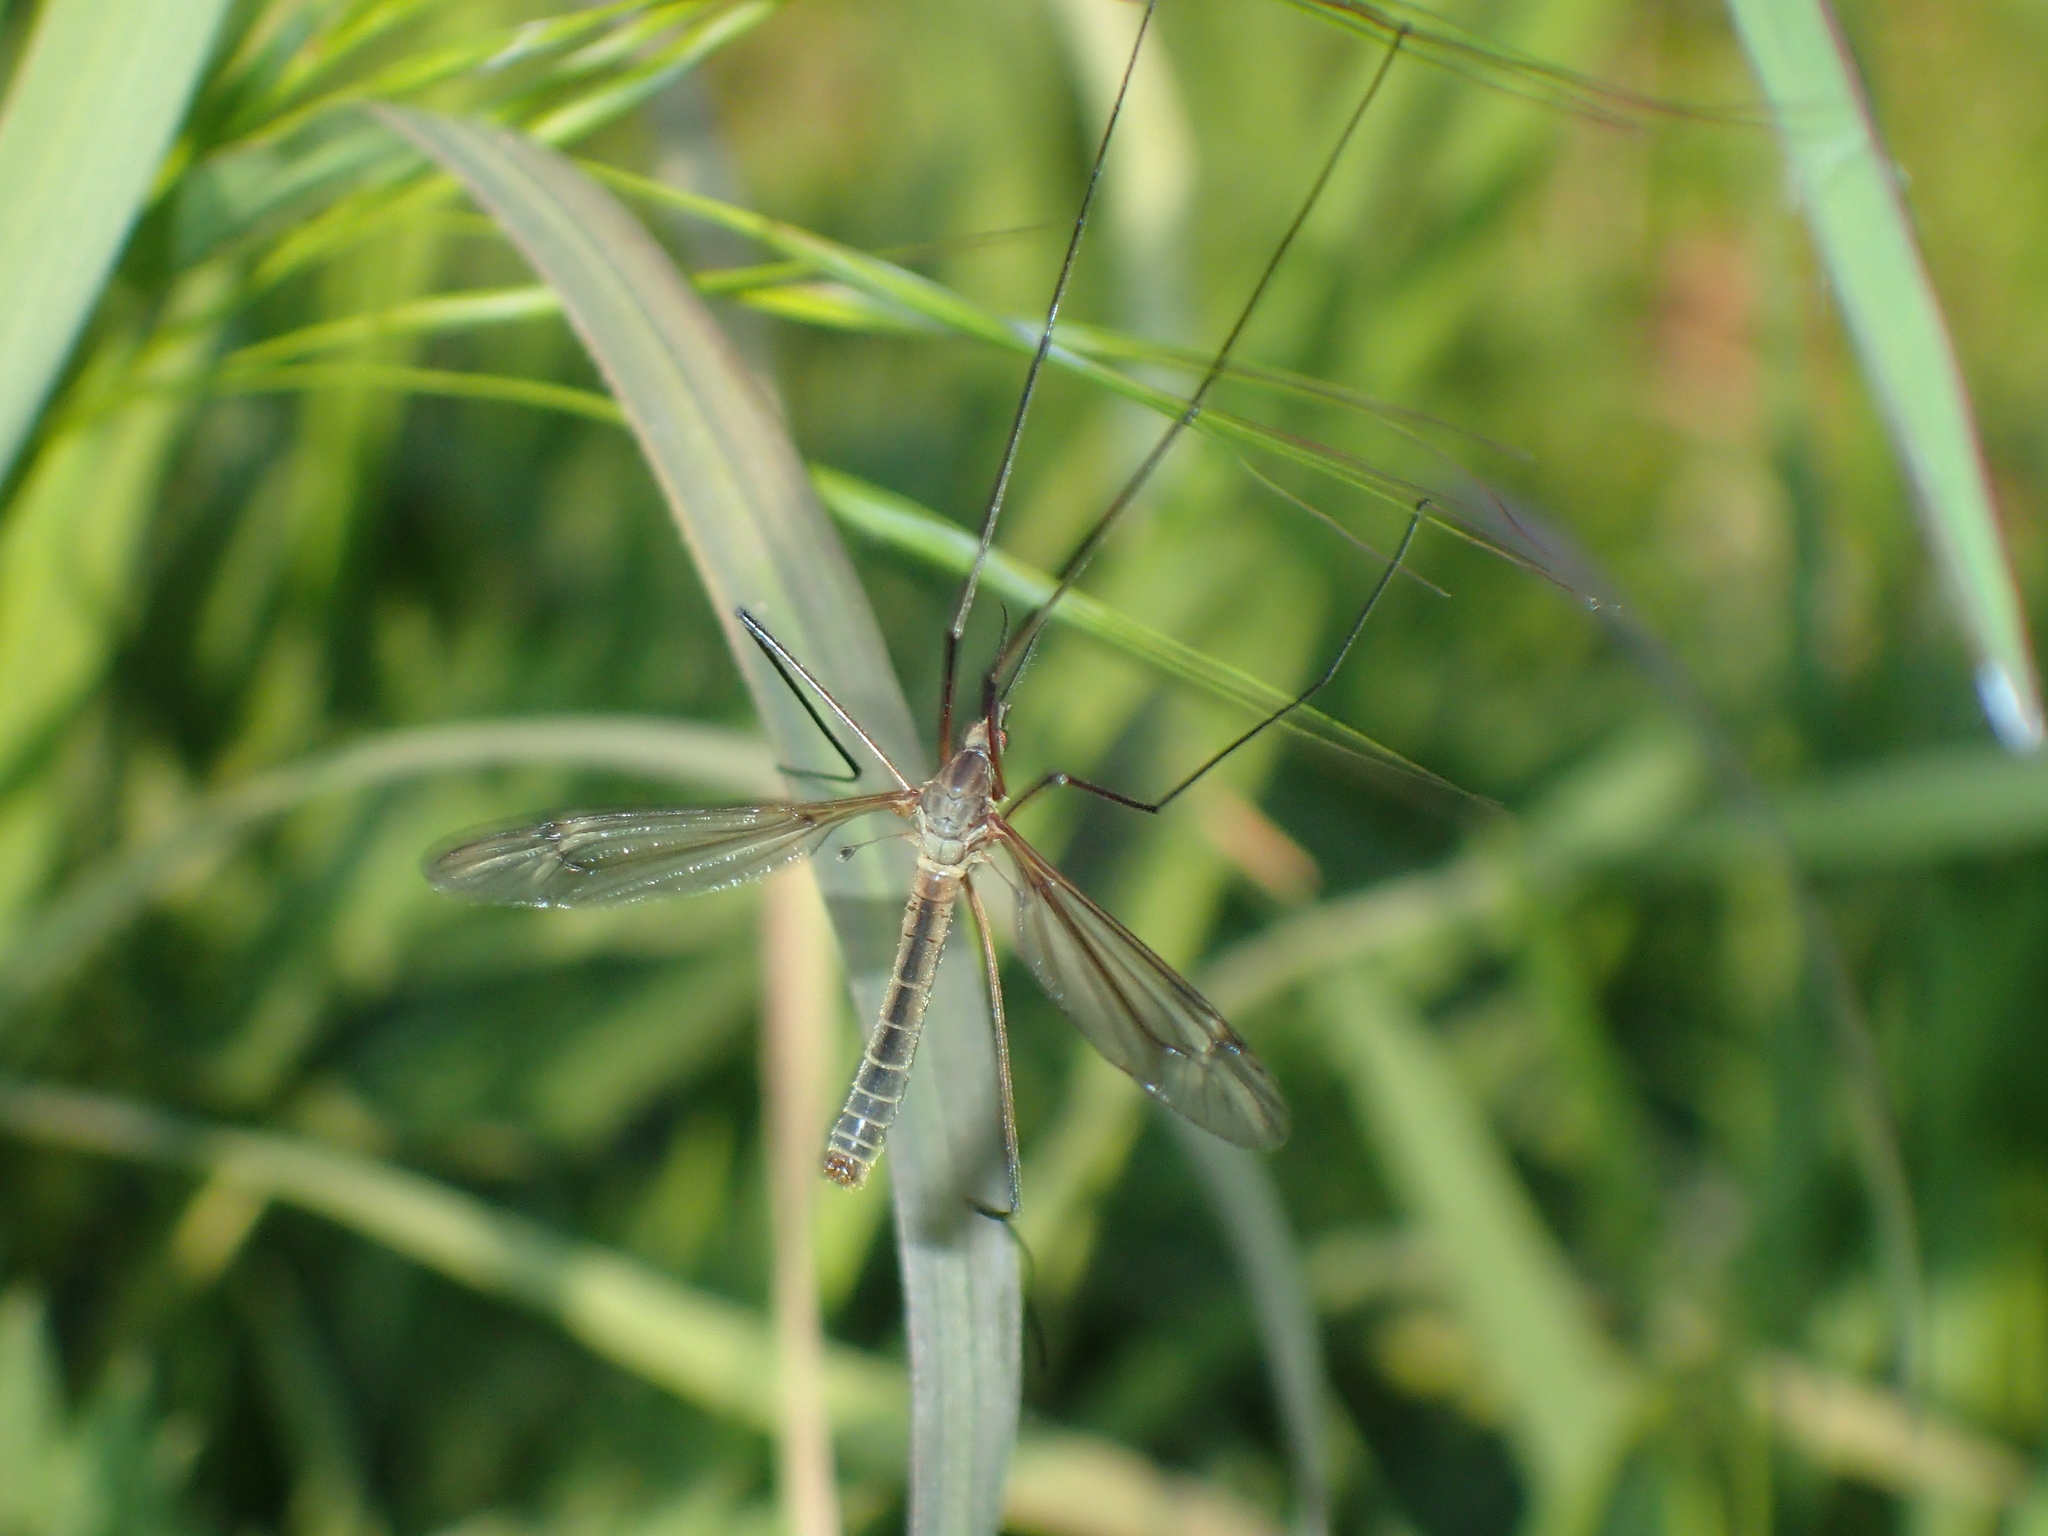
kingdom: Animalia
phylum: Arthropoda
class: Insecta
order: Diptera
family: Tipulidae
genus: Tipula
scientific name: Tipula vernalis
